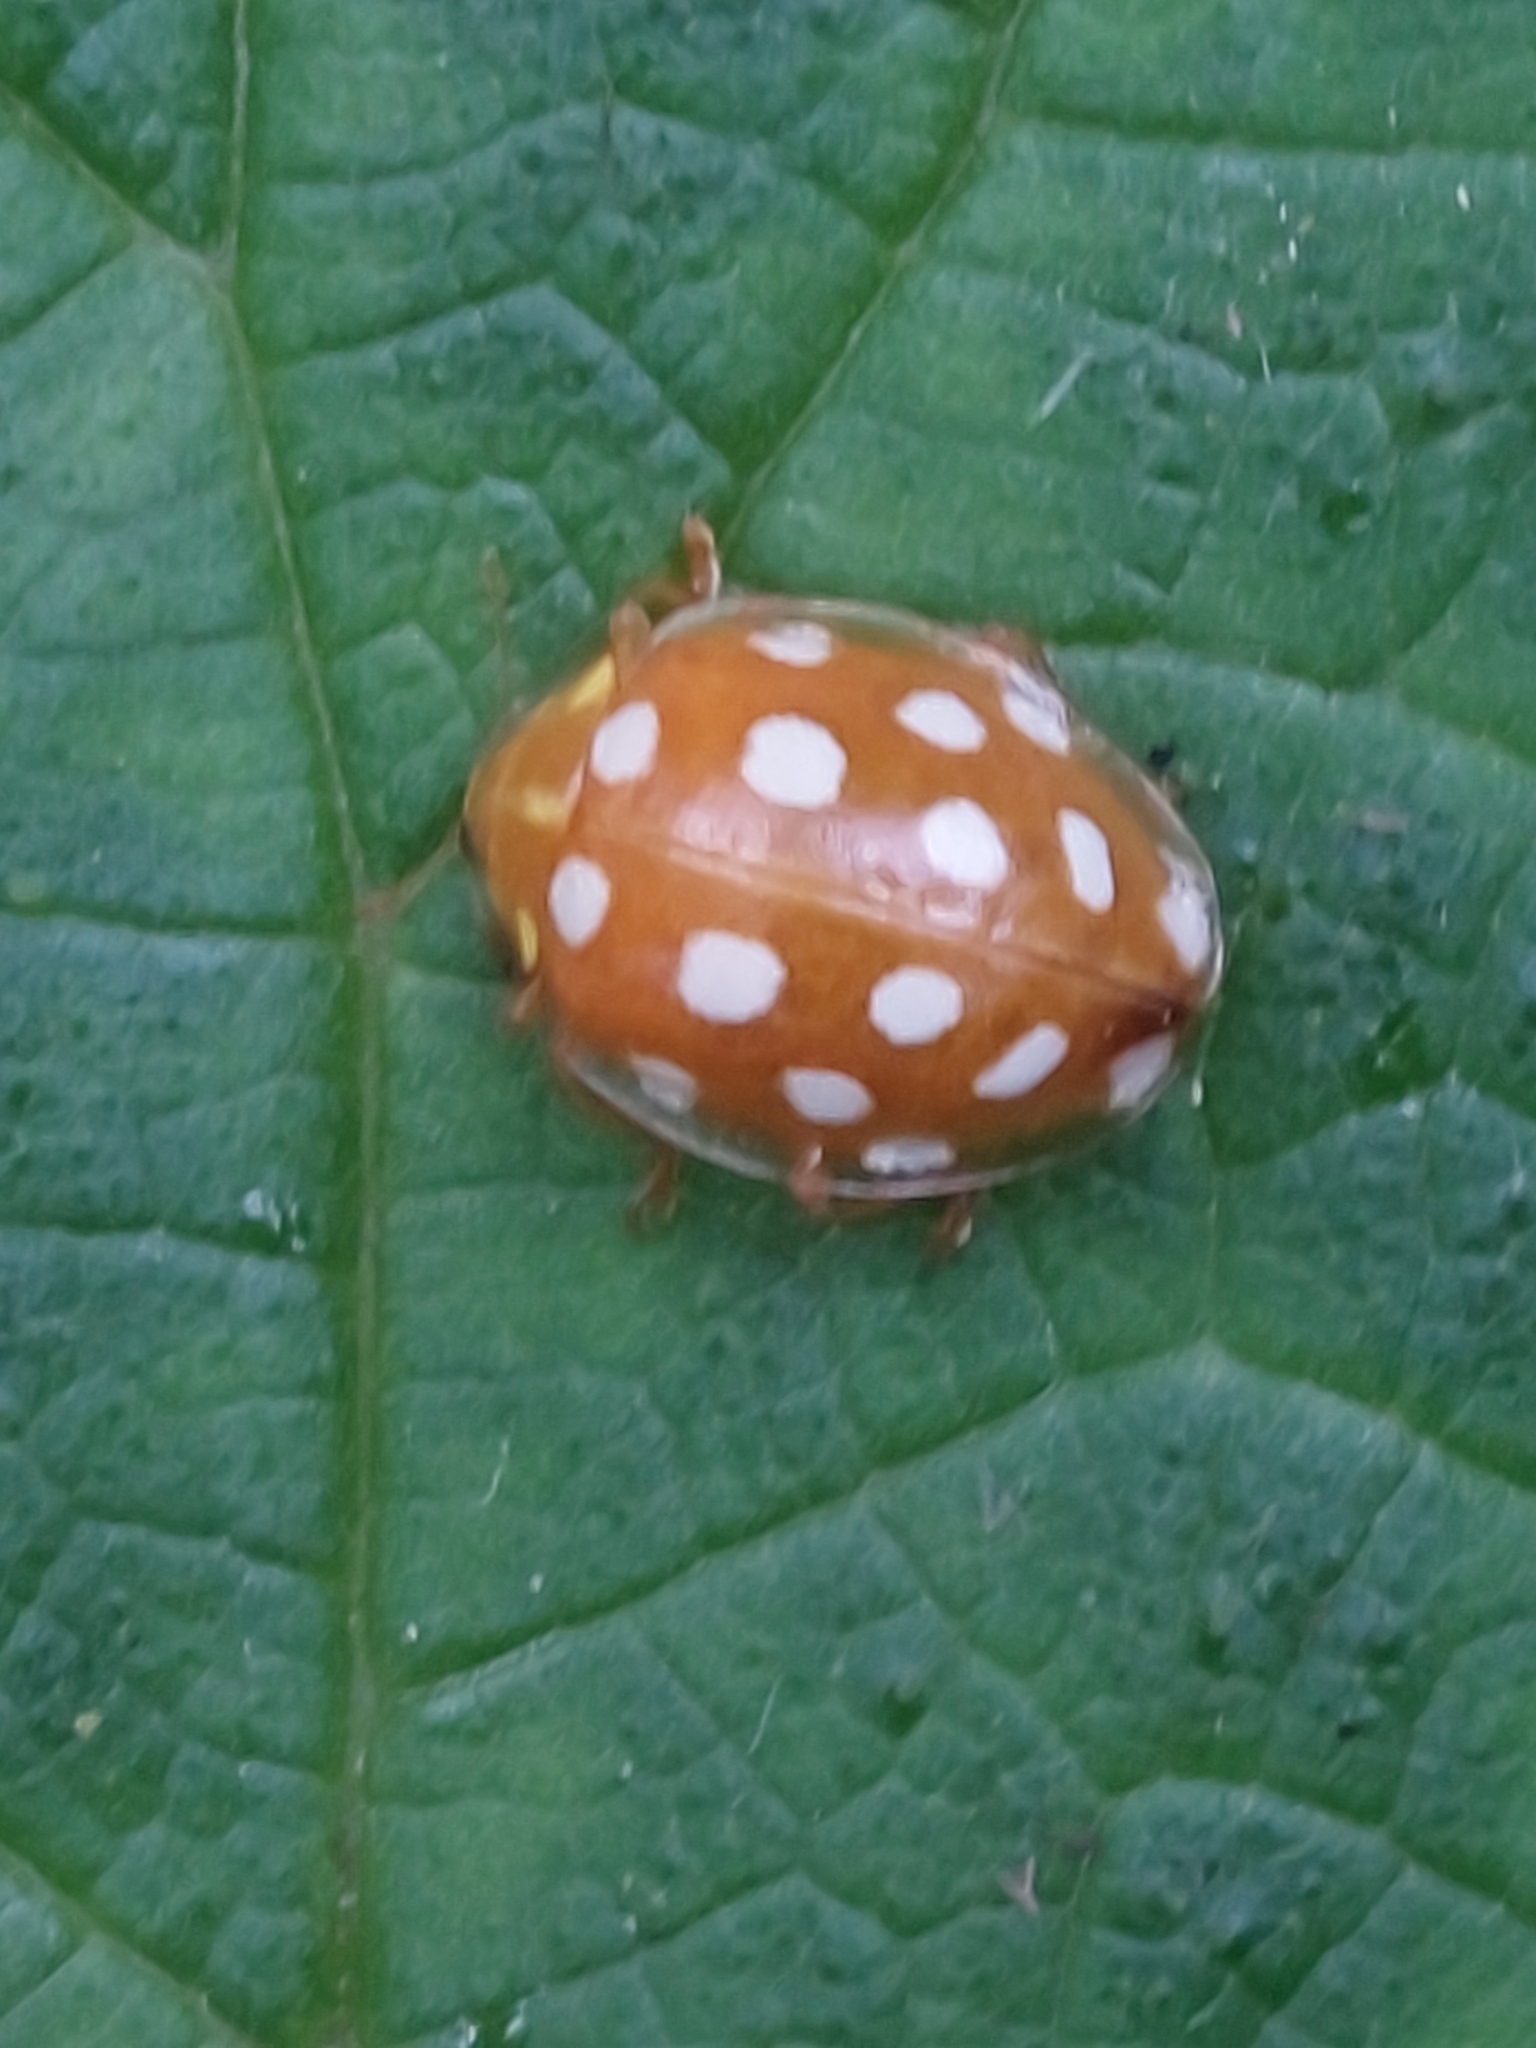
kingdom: Animalia
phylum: Arthropoda
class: Insecta
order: Coleoptera
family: Coccinellidae
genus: Halyzia
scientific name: Halyzia sedecimguttata
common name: Orange ladybird
